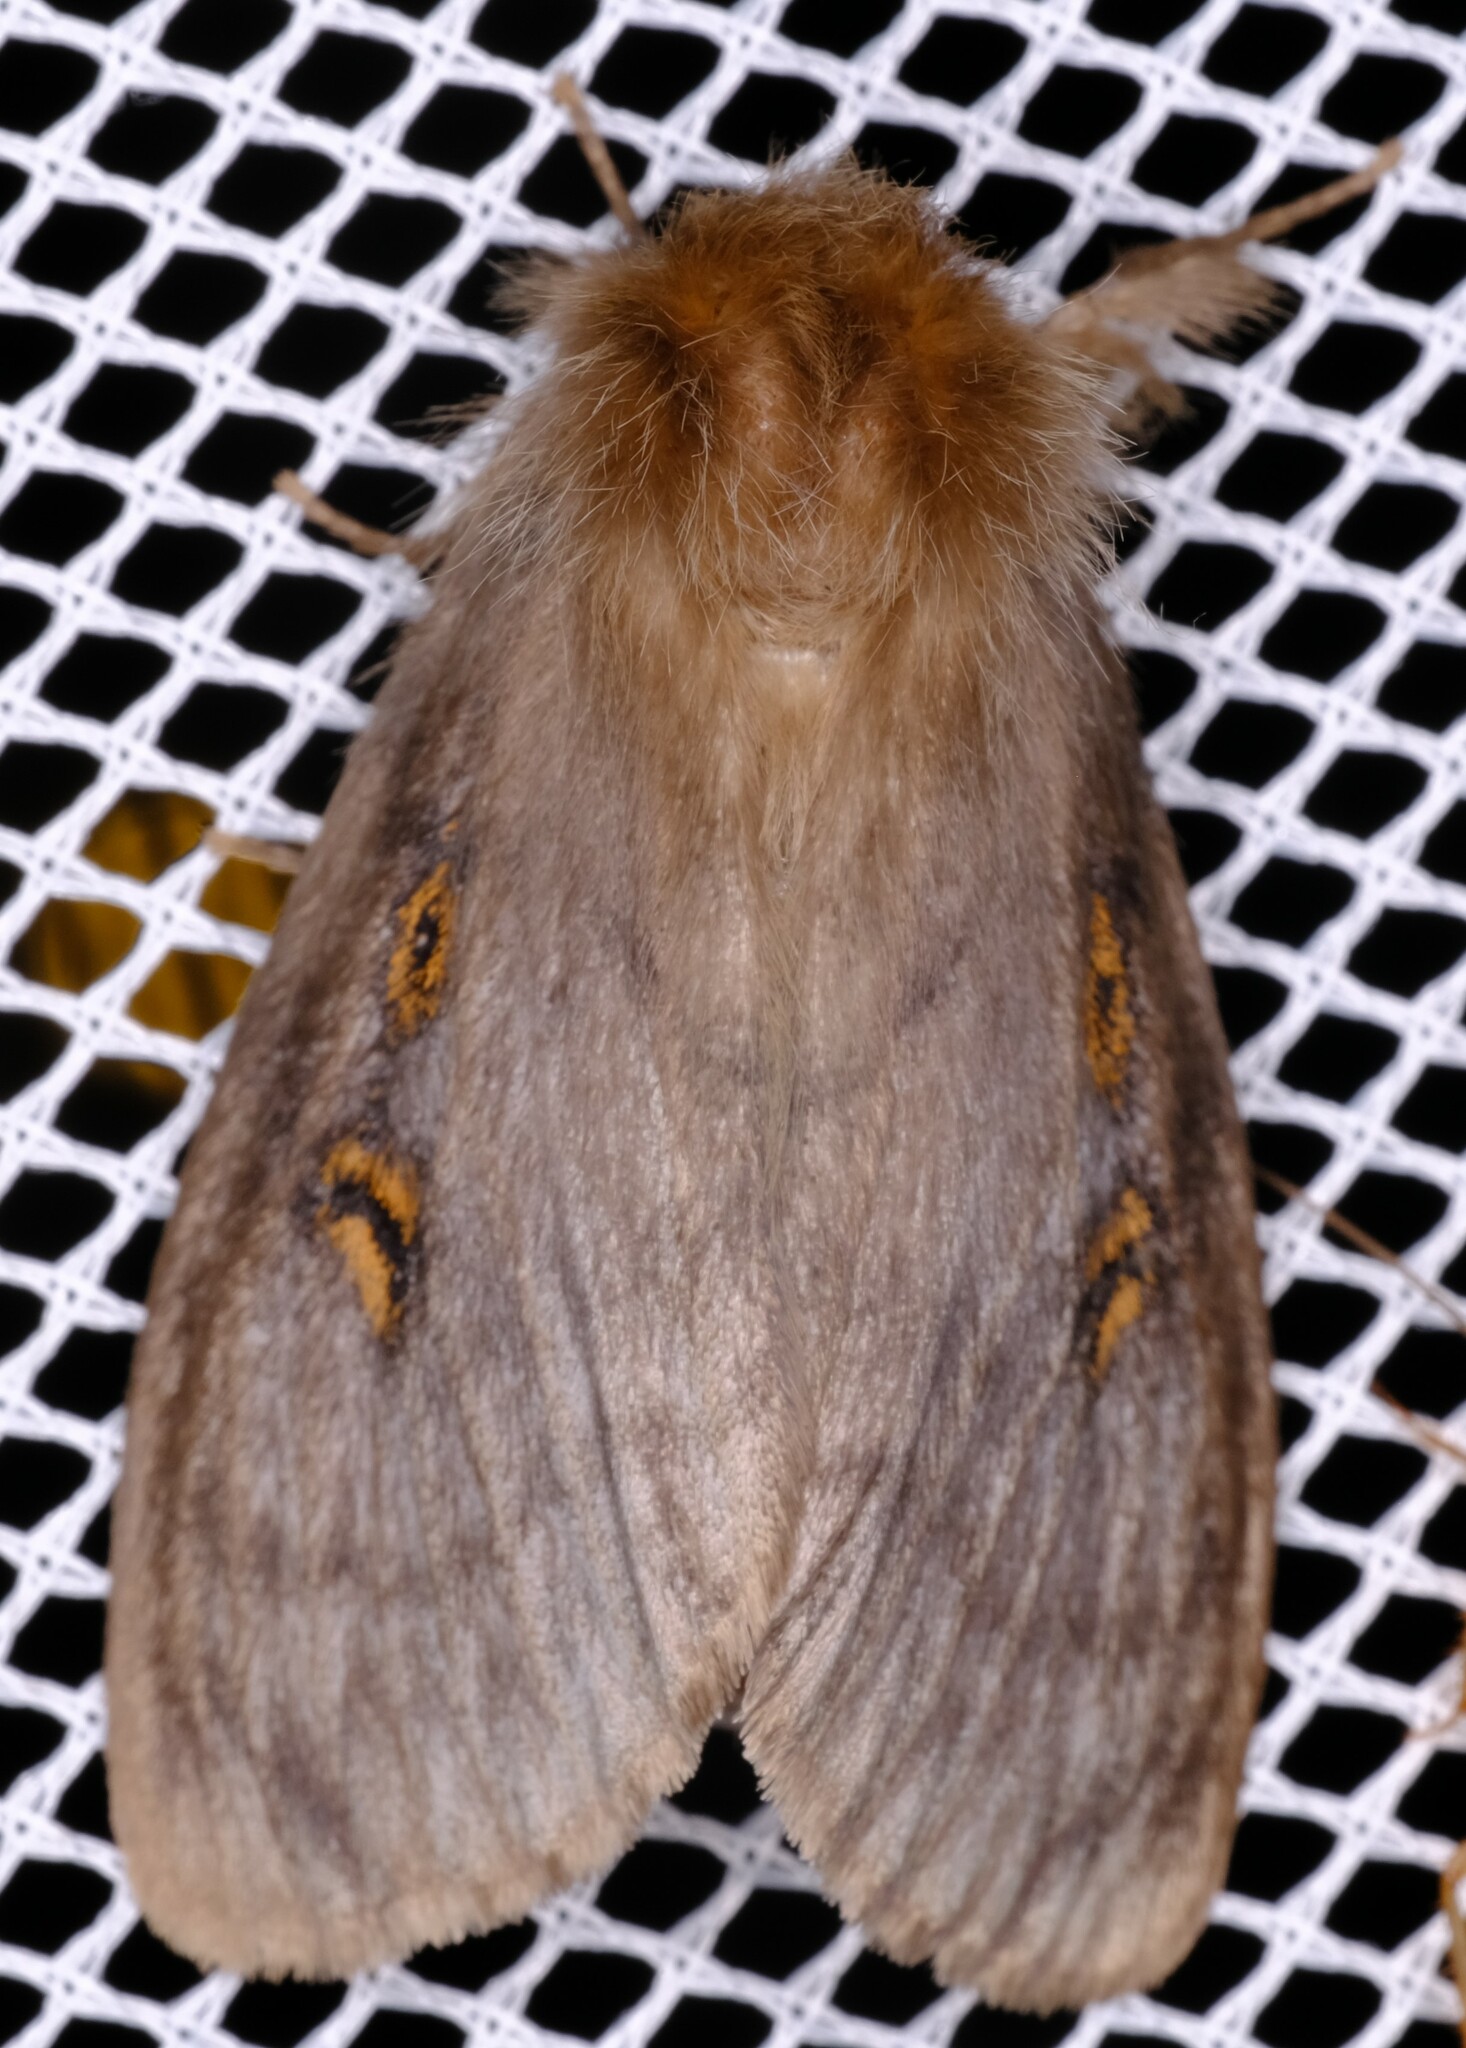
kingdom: Animalia
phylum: Arthropoda
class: Insecta
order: Lepidoptera
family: Erebidae
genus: Leptocneria
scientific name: Leptocneria reducta
